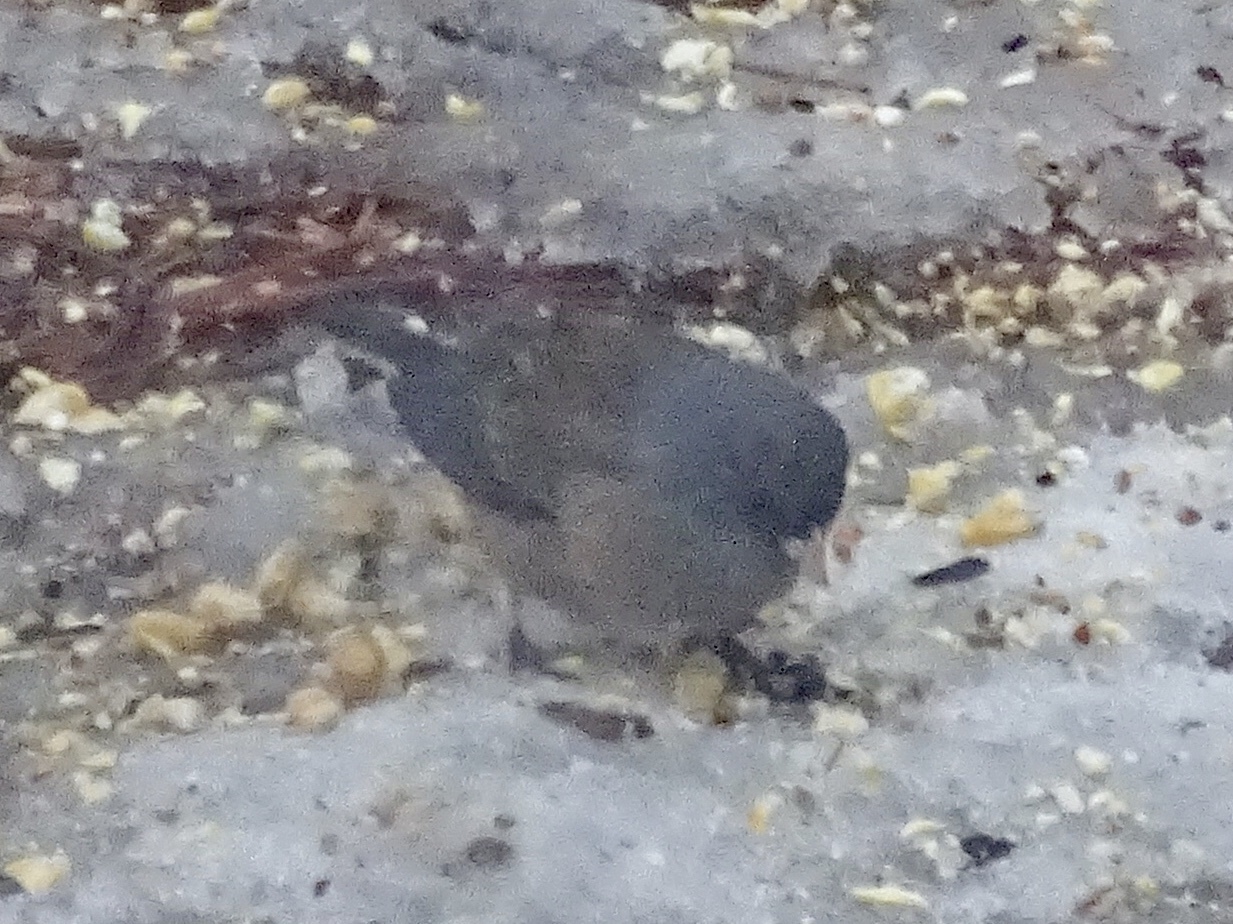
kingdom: Animalia
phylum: Chordata
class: Aves
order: Passeriformes
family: Passerellidae
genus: Junco
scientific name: Junco
